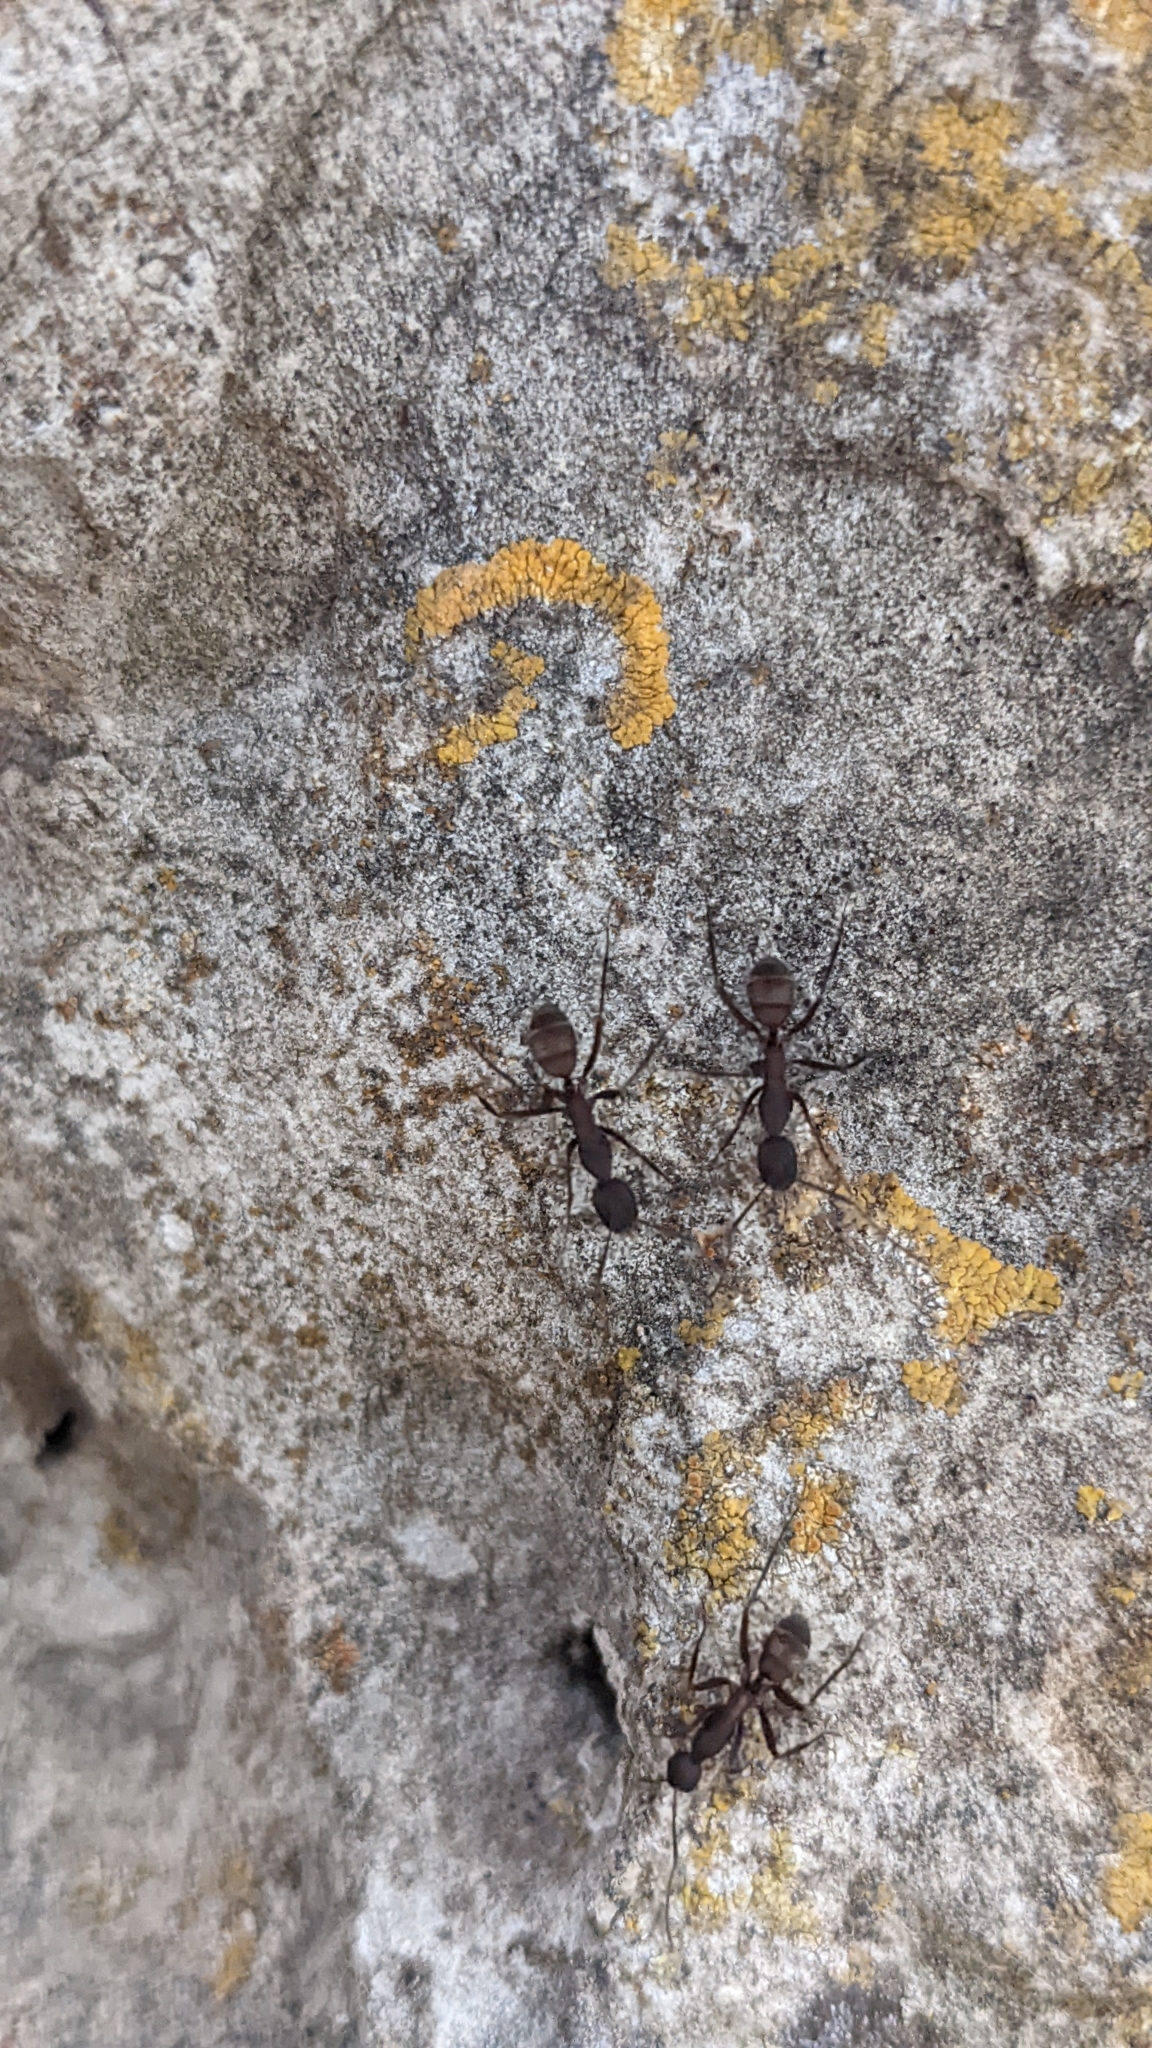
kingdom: Animalia
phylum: Arthropoda
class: Insecta
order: Hymenoptera
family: Formicidae
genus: Camponotus
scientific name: Camponotus cruentatus
